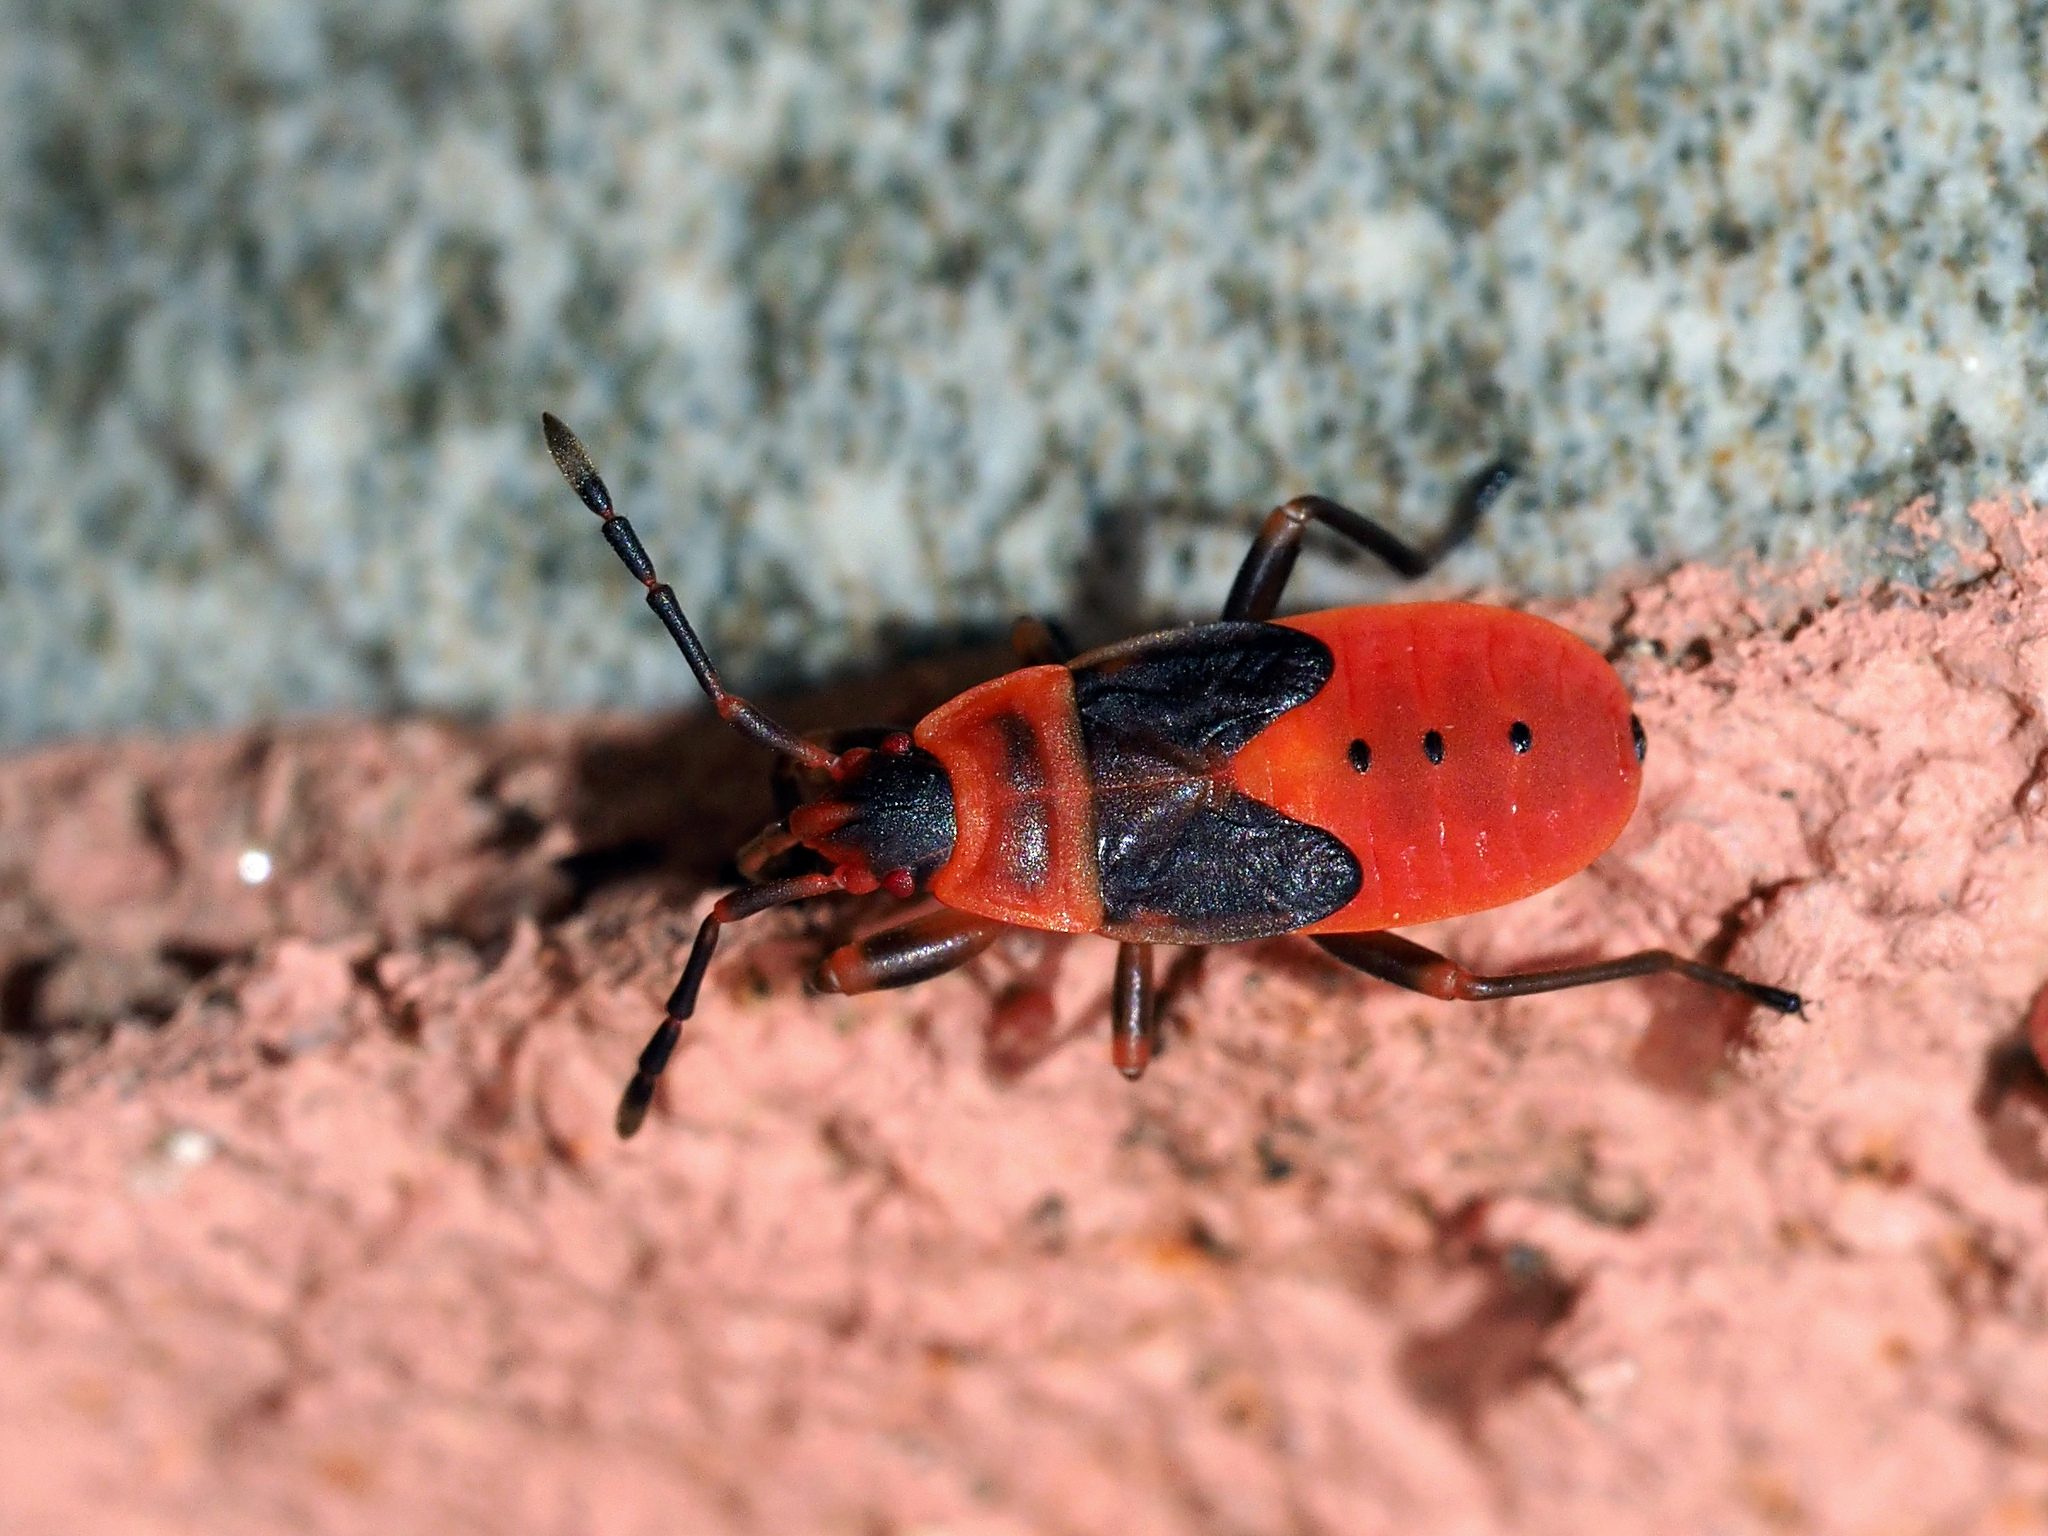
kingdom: Animalia
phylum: Arthropoda
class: Insecta
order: Hemiptera
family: Pyrrhocoridae
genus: Scantius
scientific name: Scantius aegyptius
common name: Red bug
